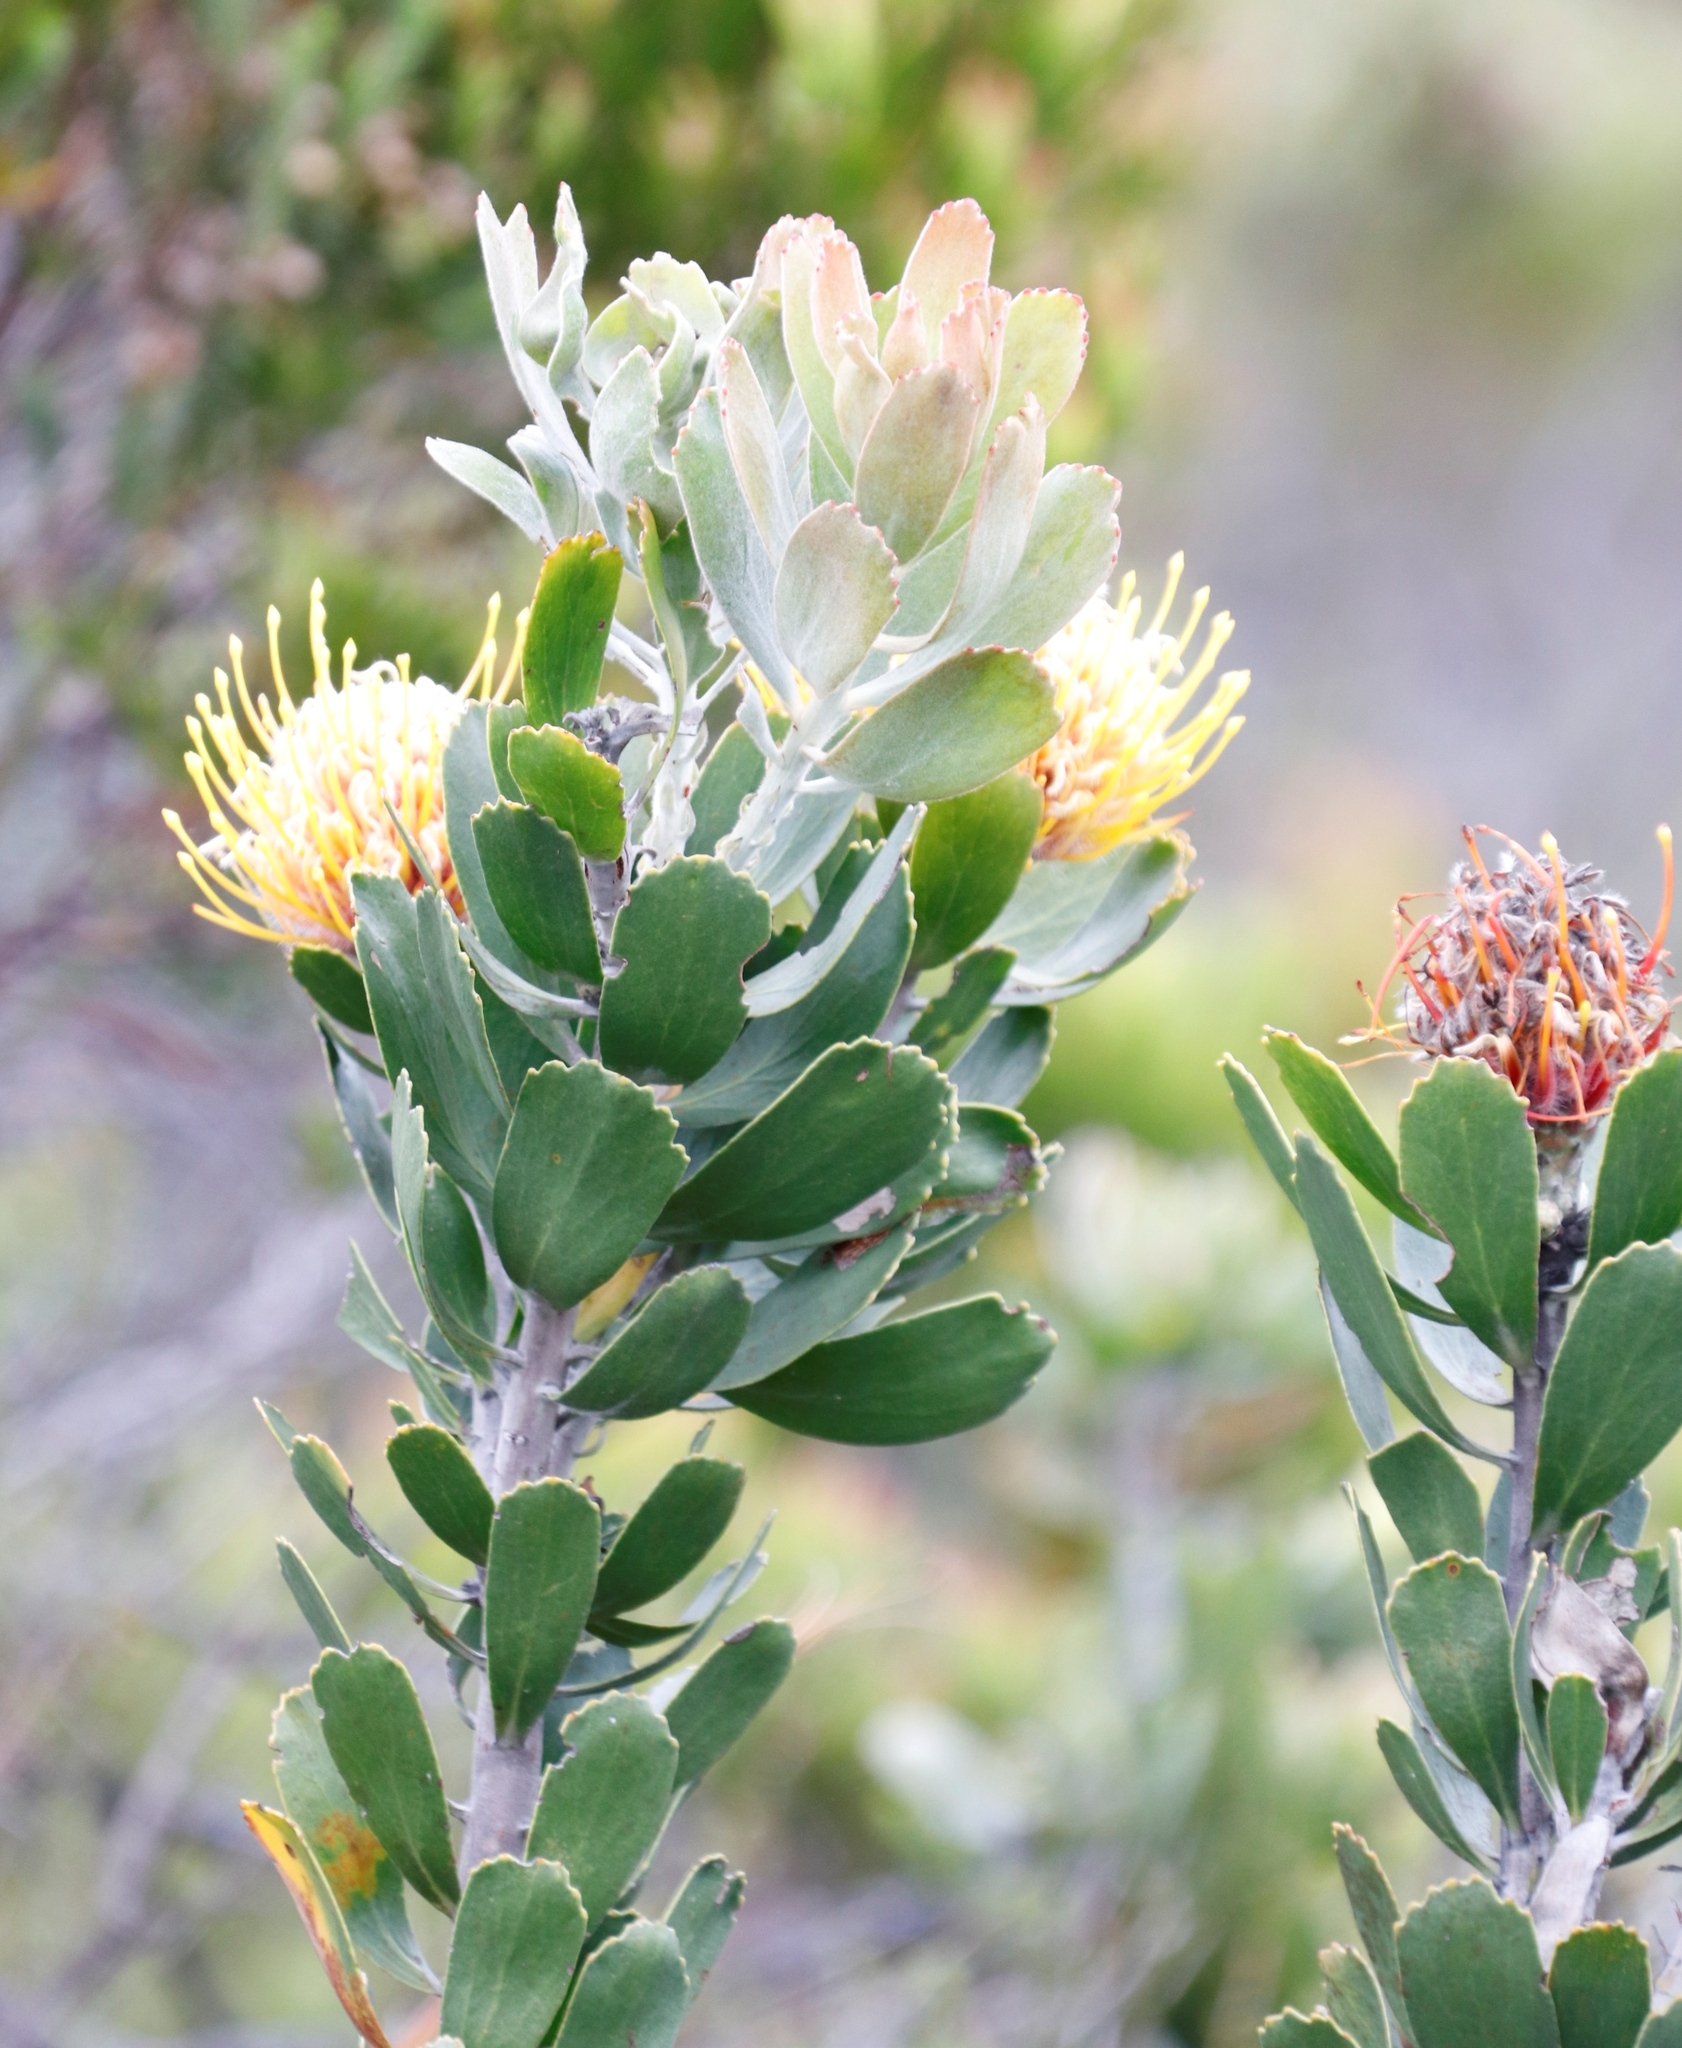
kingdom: Plantae
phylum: Tracheophyta
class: Magnoliopsida
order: Proteales
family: Proteaceae
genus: Leucospermum
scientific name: Leucospermum cuneiforme
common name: Common pincushion
